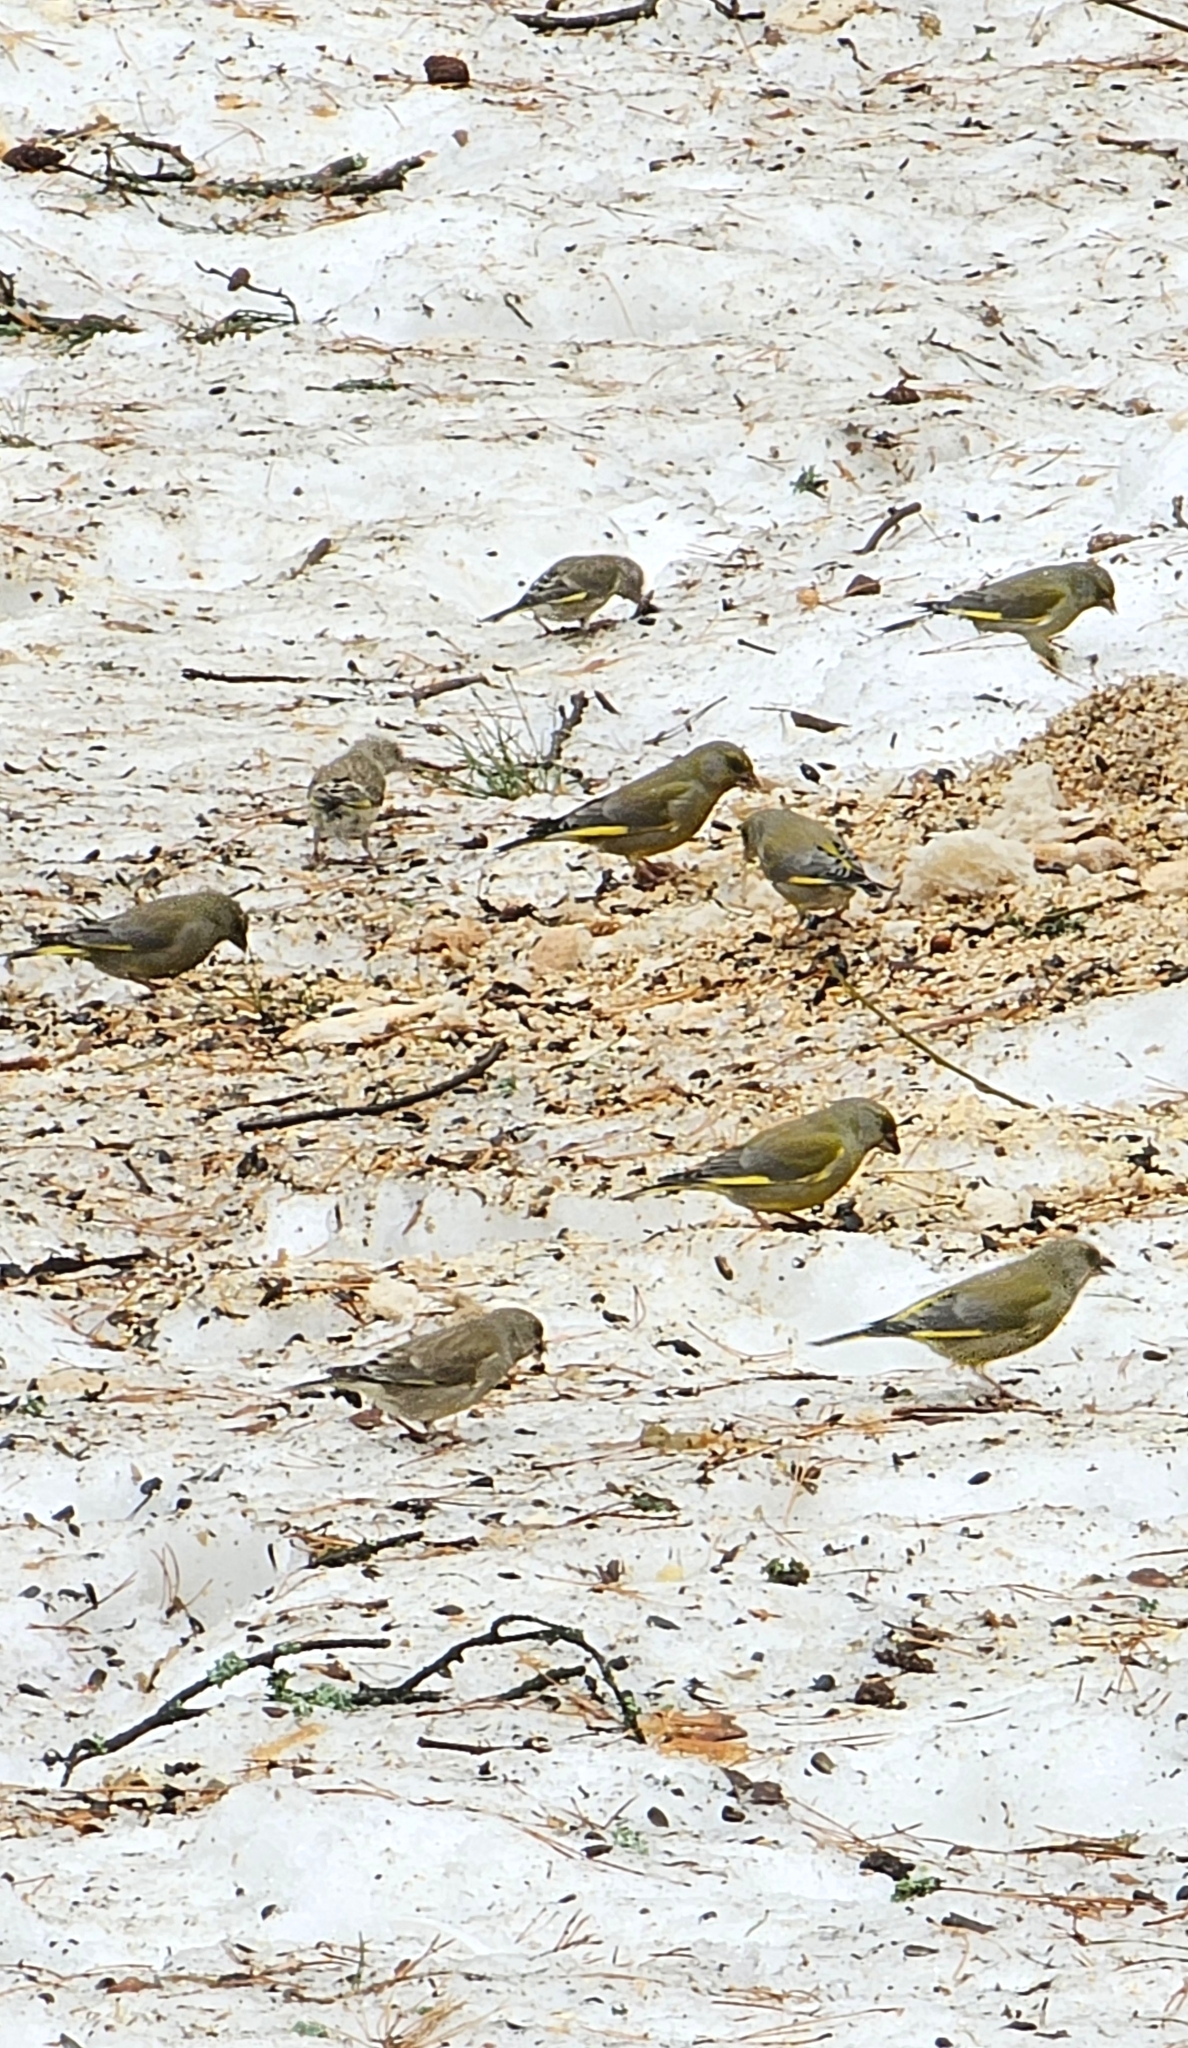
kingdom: Plantae
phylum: Tracheophyta
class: Liliopsida
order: Poales
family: Poaceae
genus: Chloris
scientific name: Chloris chloris
